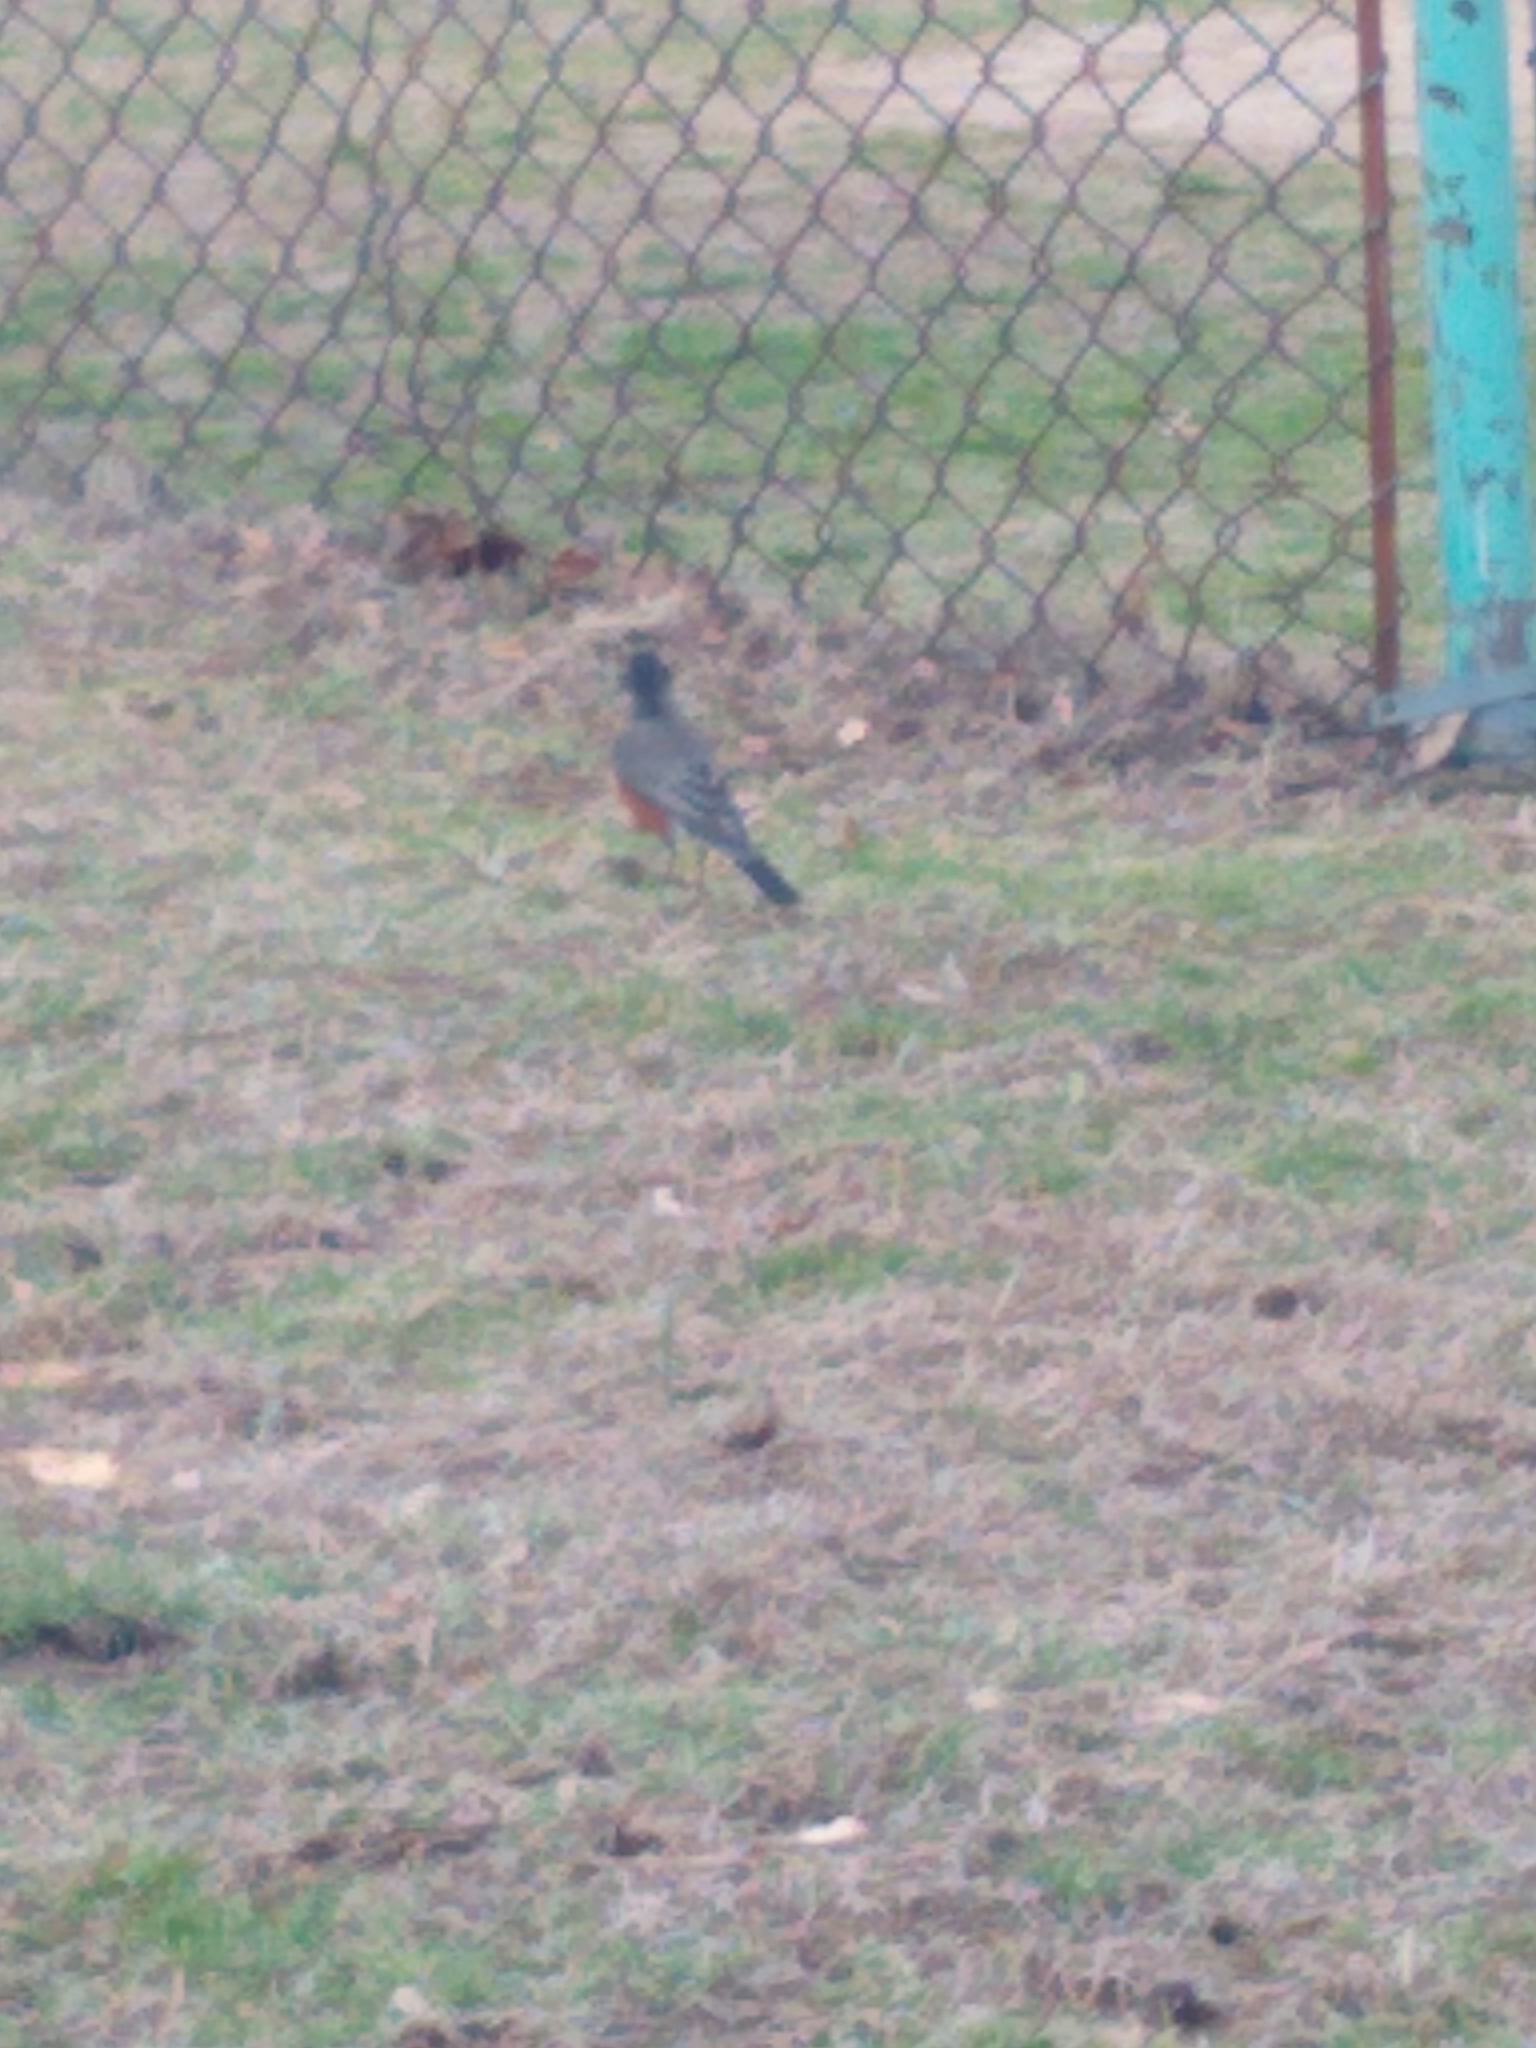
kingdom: Animalia
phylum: Chordata
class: Aves
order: Passeriformes
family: Turdidae
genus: Turdus
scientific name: Turdus migratorius
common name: American robin
